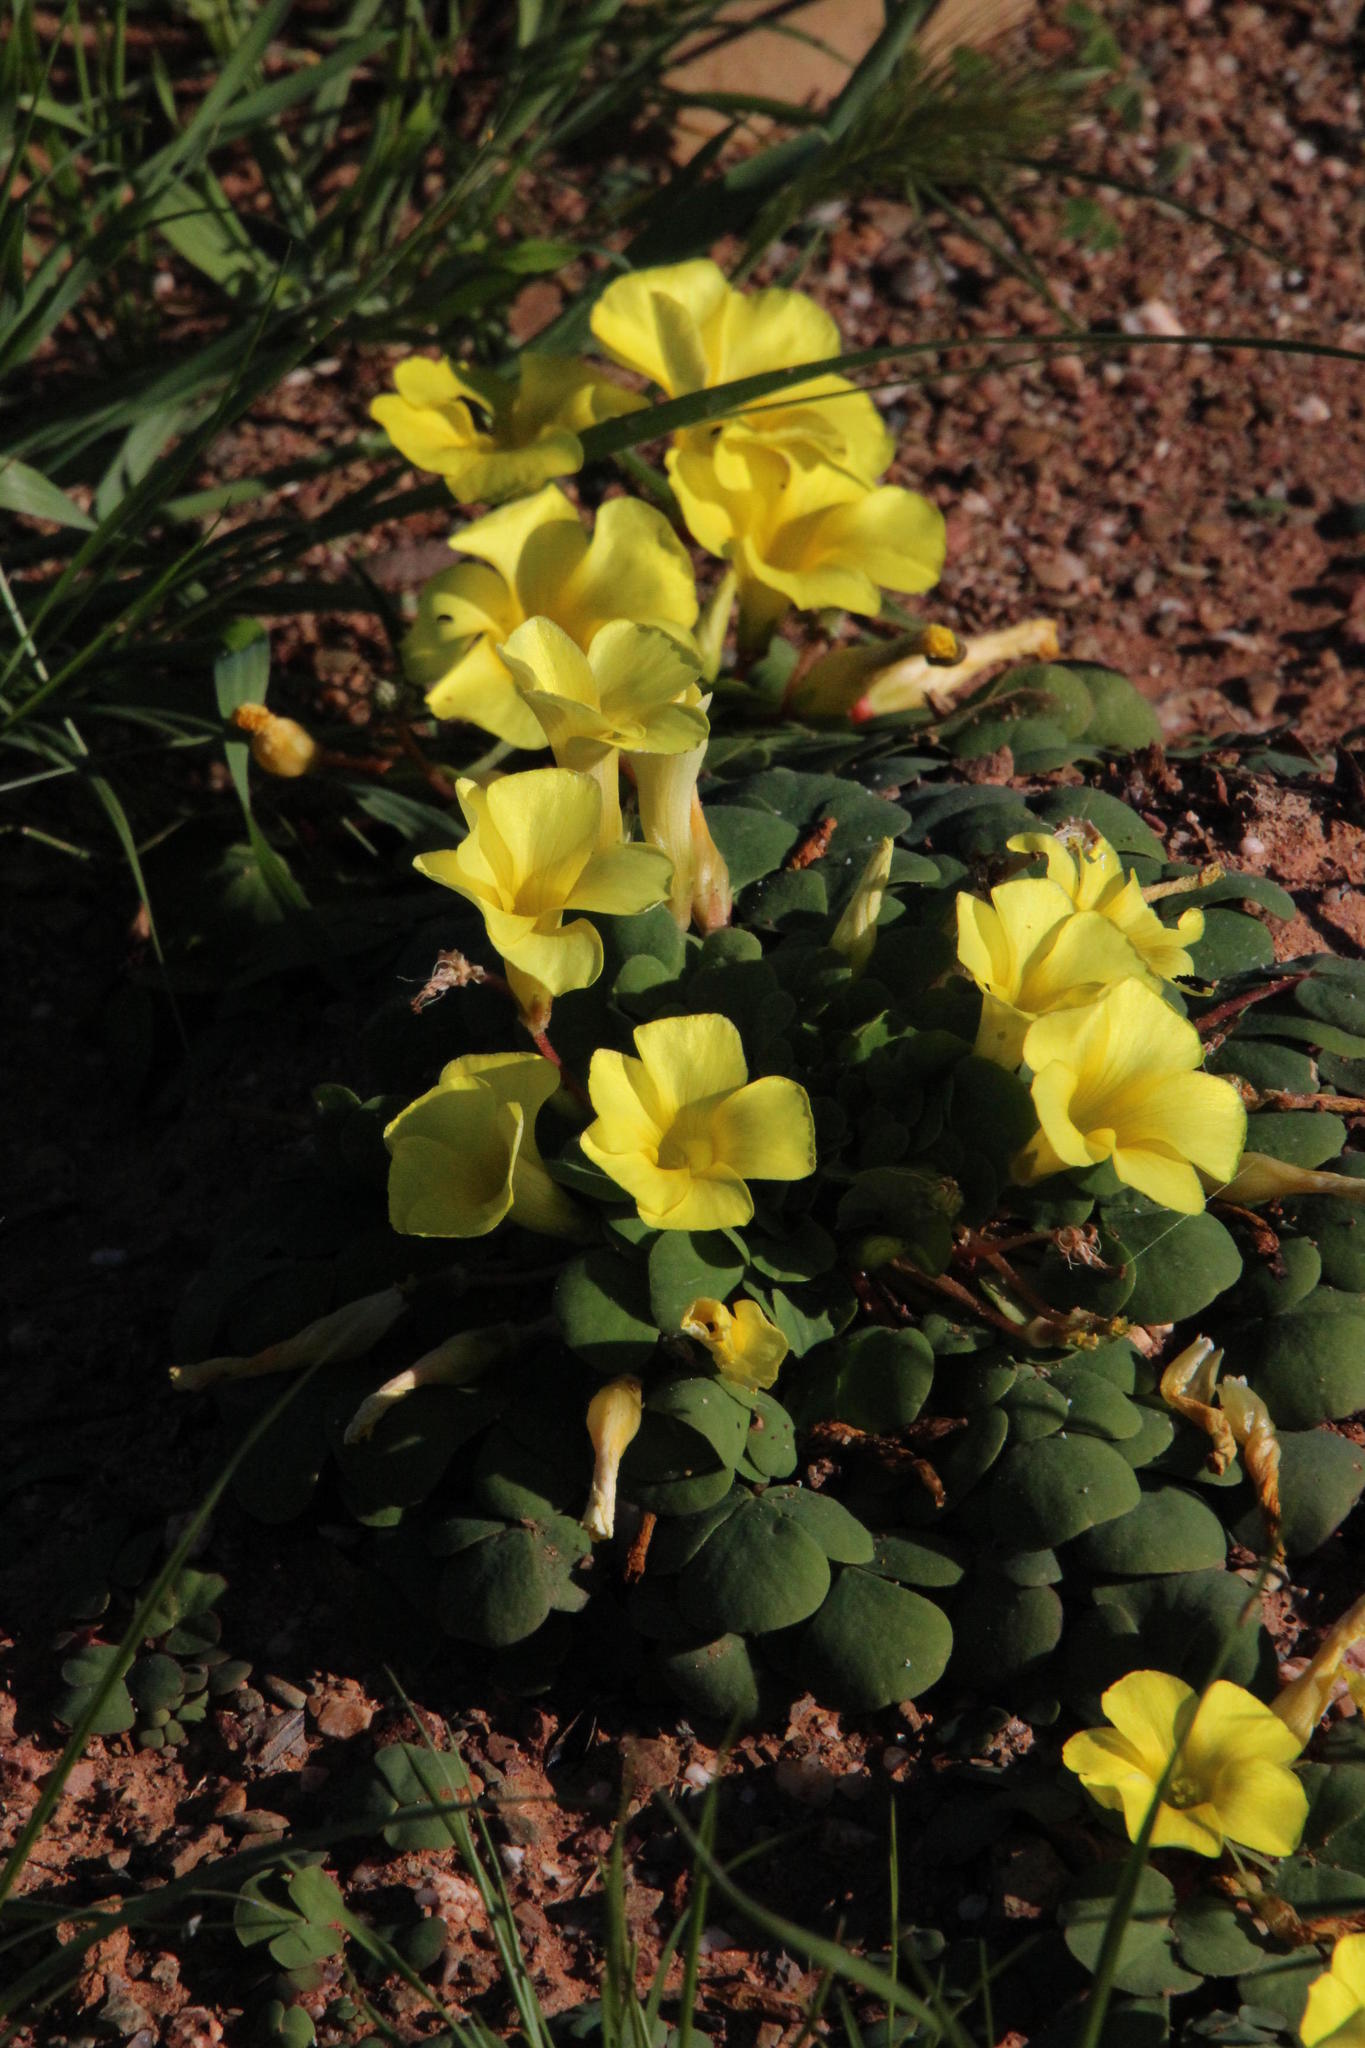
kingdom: Plantae
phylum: Tracheophyta
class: Magnoliopsida
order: Oxalidales
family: Oxalidaceae
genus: Oxalis
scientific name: Oxalis purpurea
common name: Purple woodsorrel
